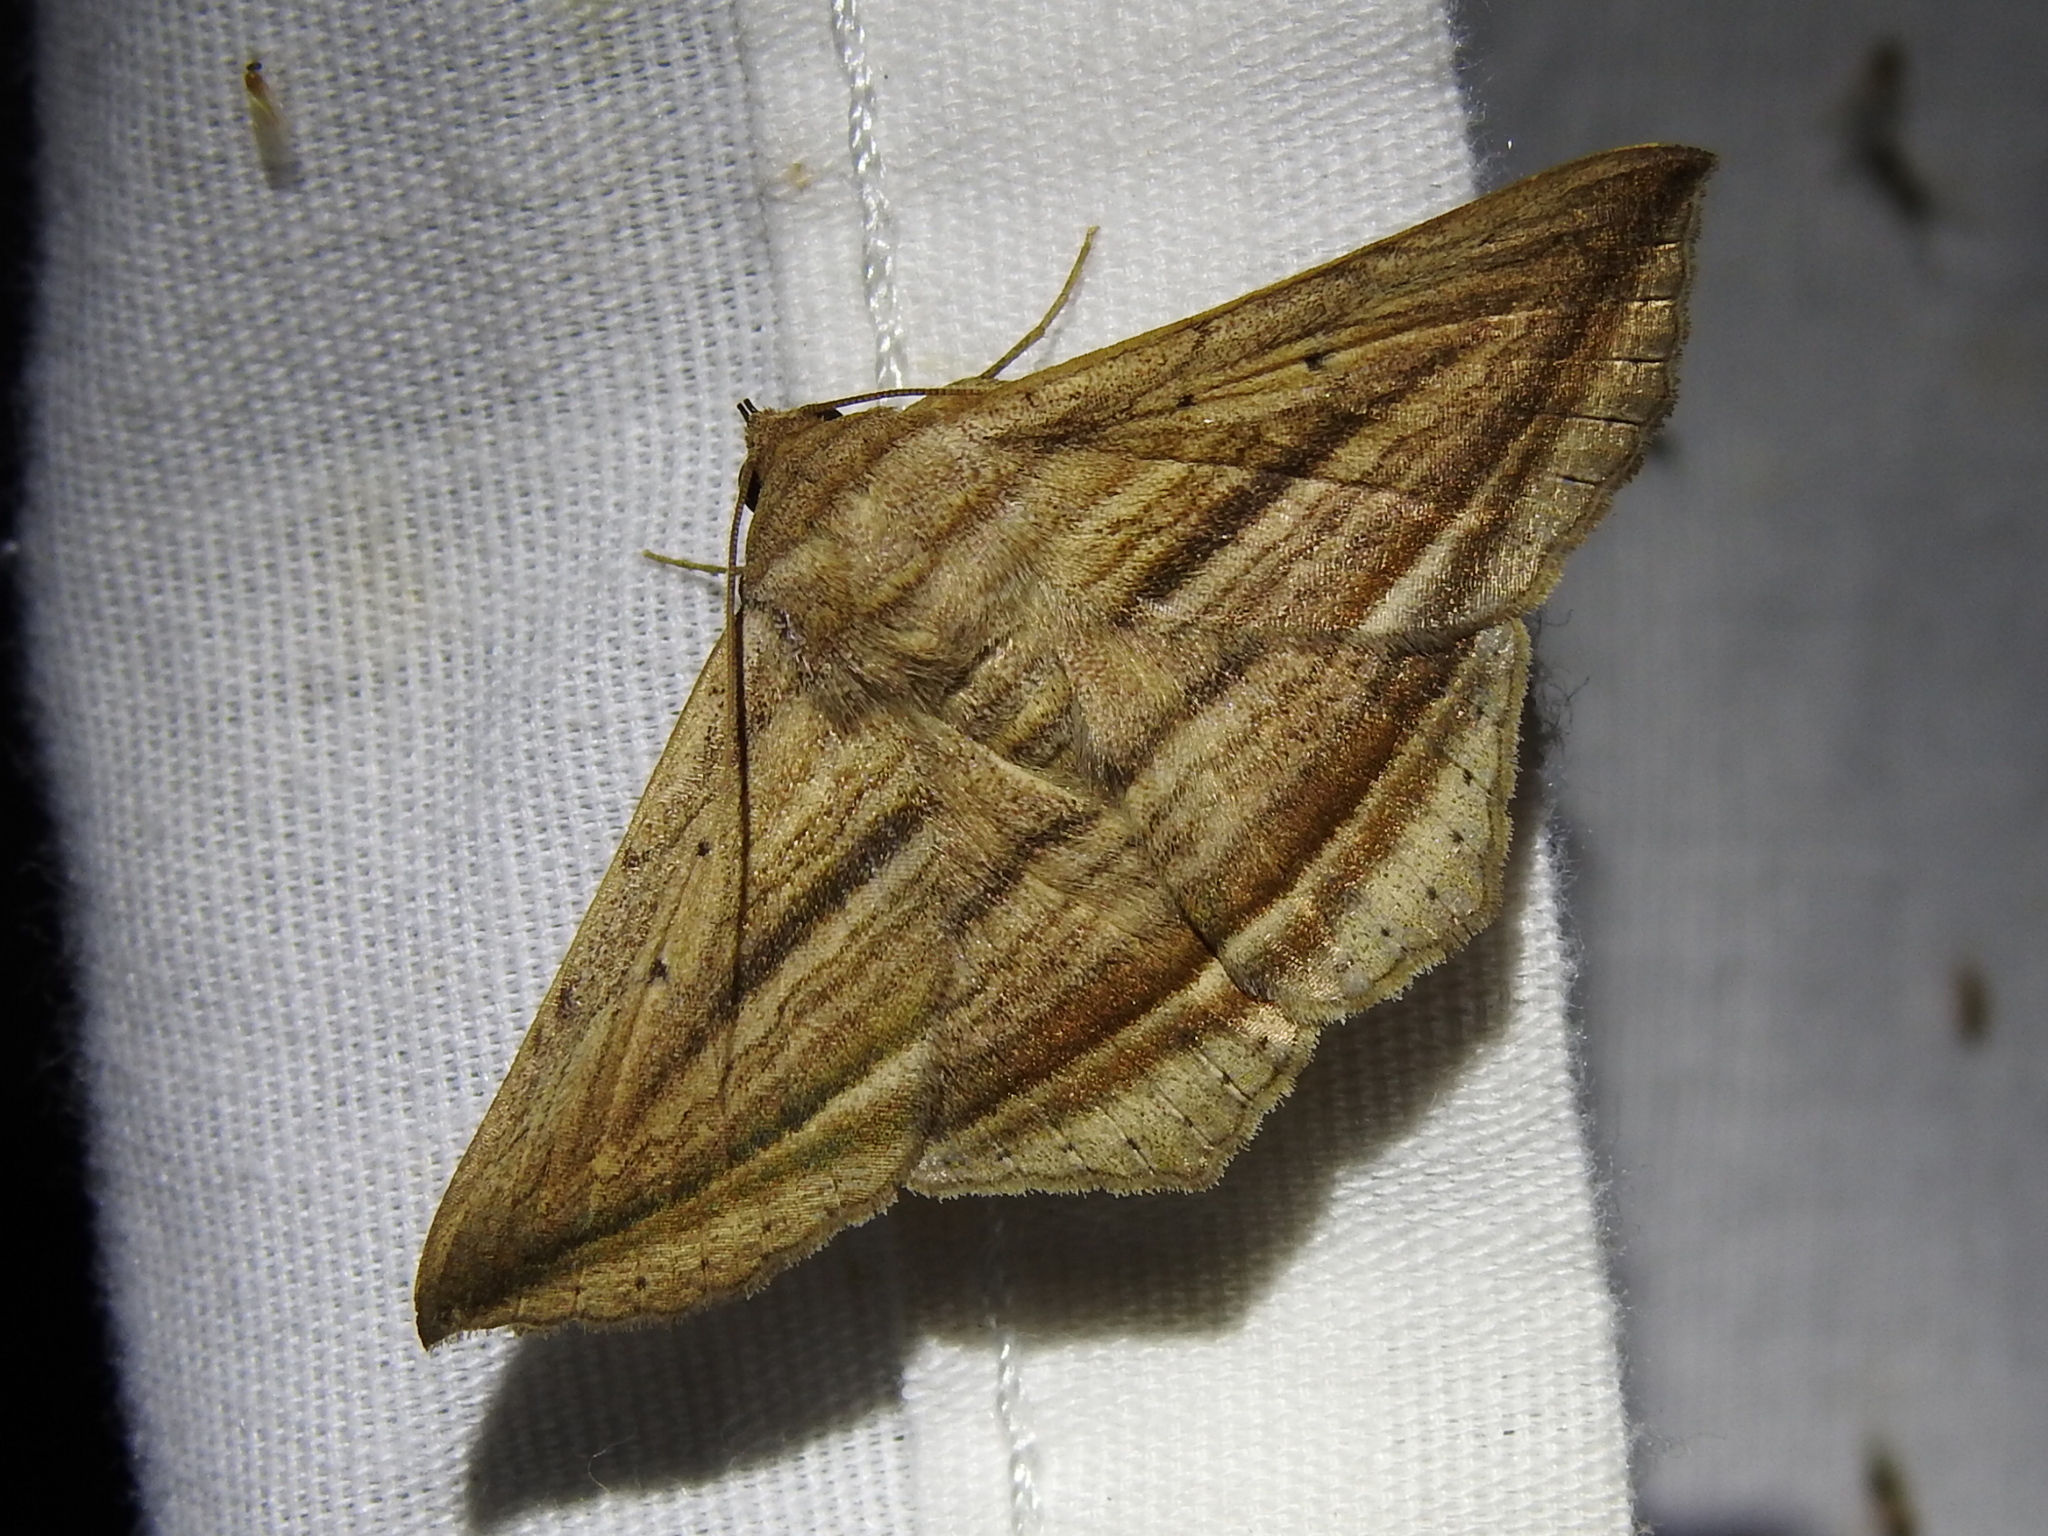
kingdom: Animalia
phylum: Arthropoda
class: Insecta
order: Lepidoptera
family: Erebidae
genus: Itomia
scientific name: Itomia opistographa
